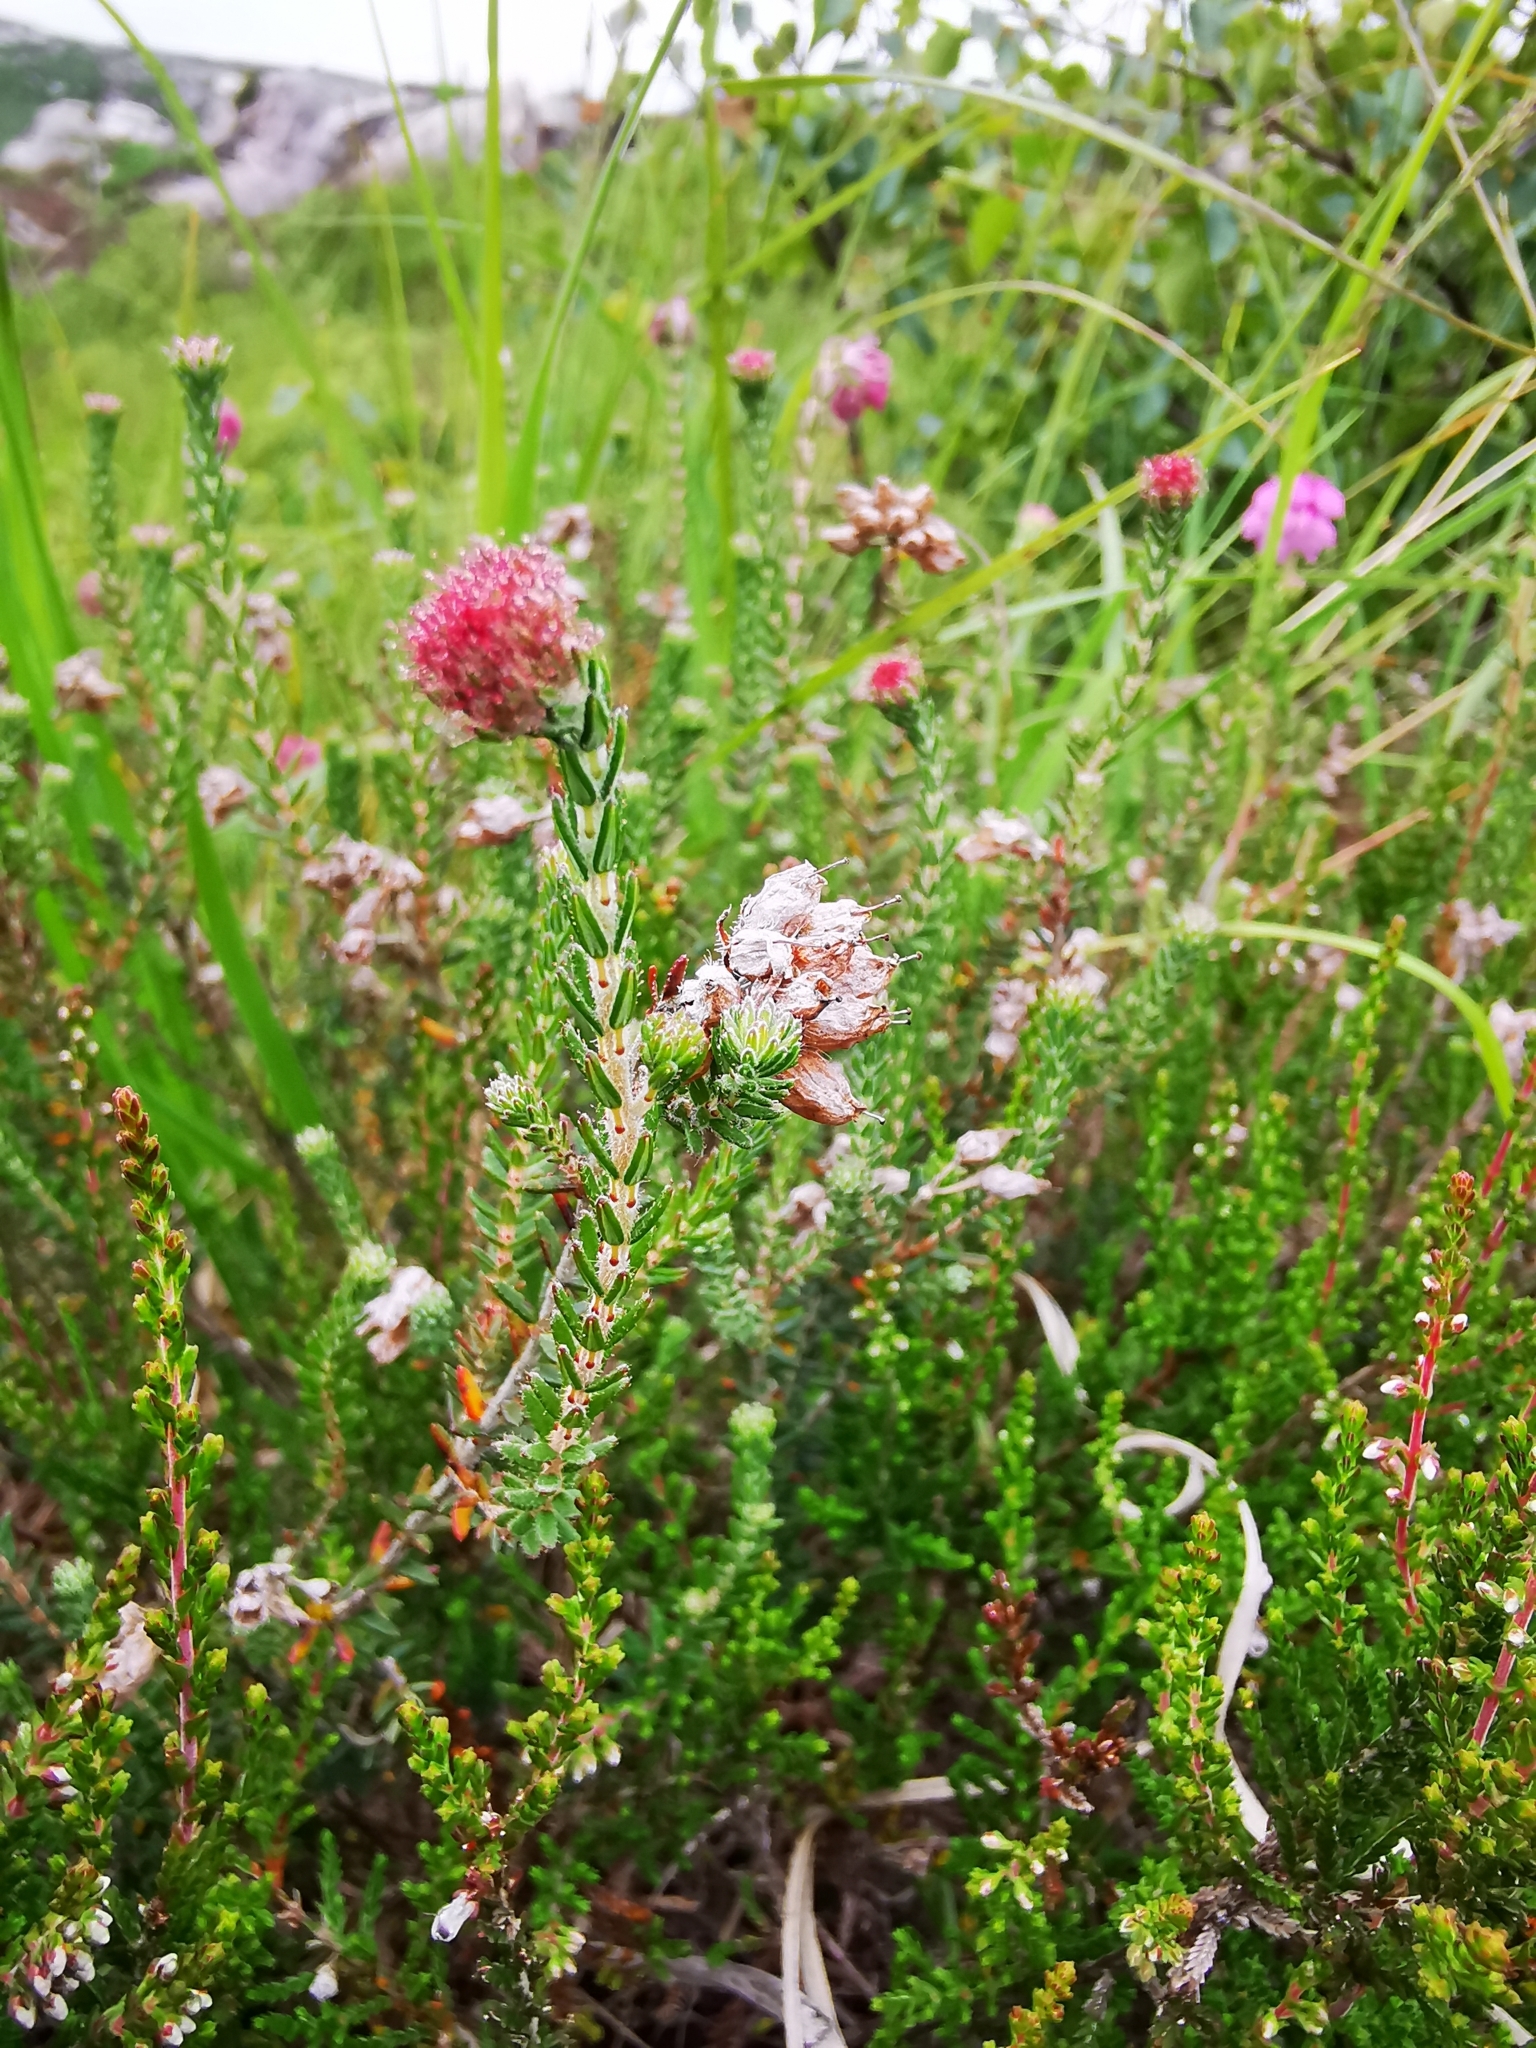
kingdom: Plantae
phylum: Tracheophyta
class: Magnoliopsida
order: Ericales
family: Ericaceae
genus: Erica
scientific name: Erica tetralix
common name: Cross-leaved heath
